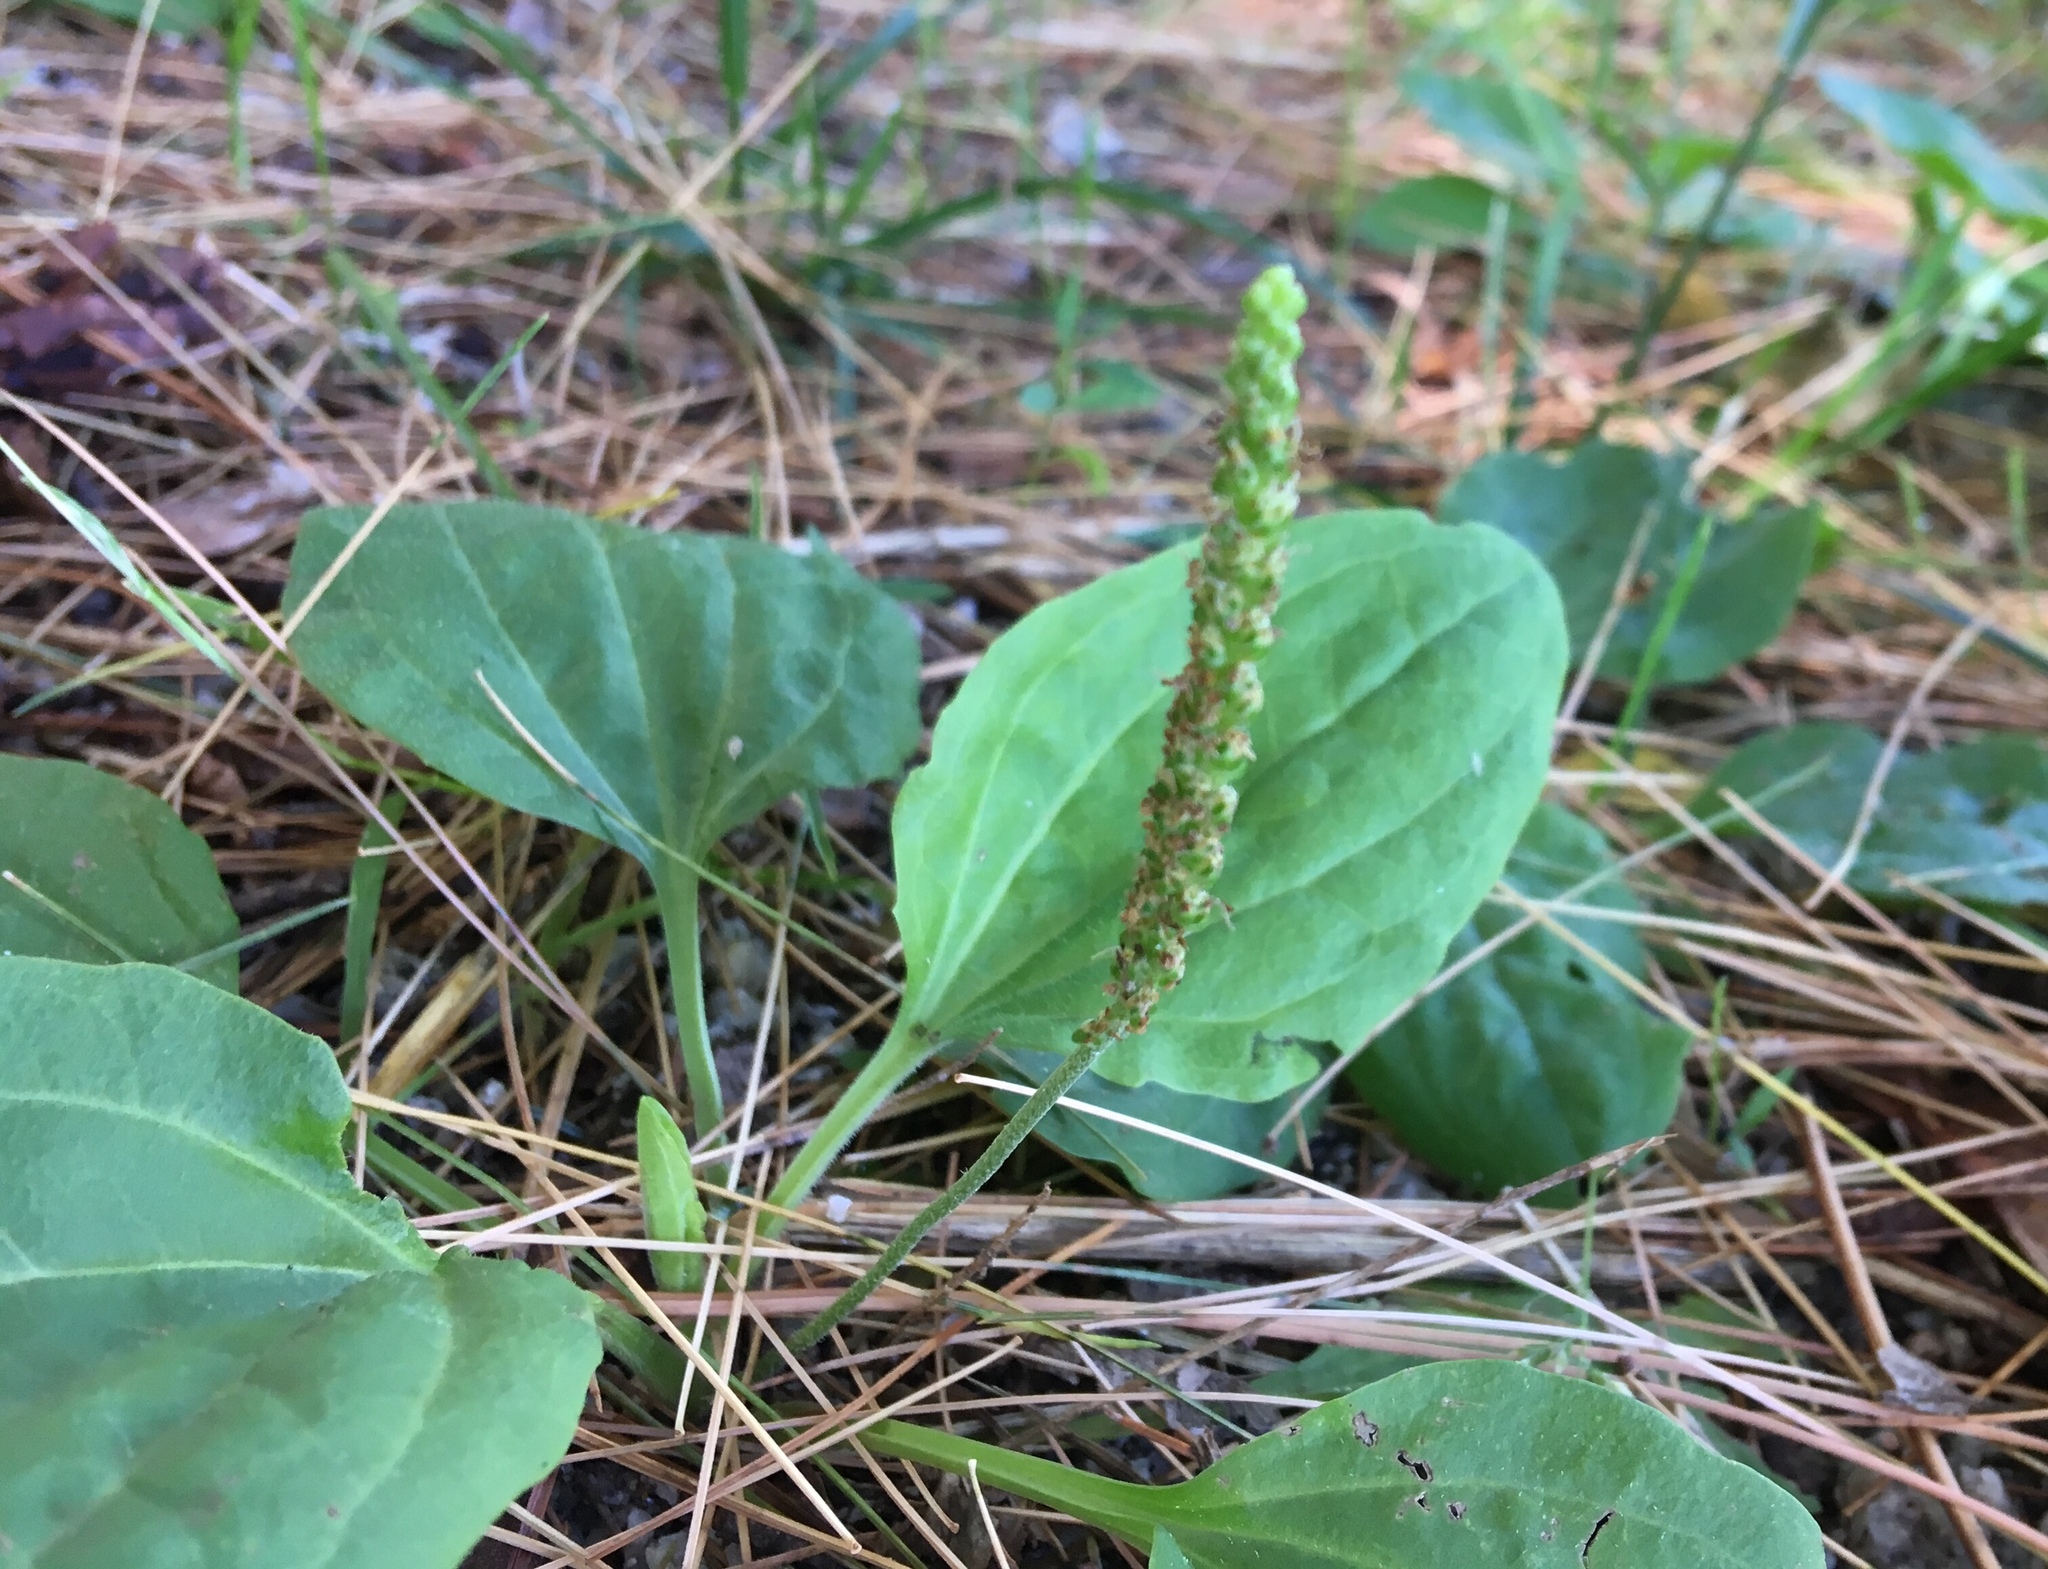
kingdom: Plantae
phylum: Tracheophyta
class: Magnoliopsida
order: Lamiales
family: Plantaginaceae
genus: Plantago
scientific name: Plantago major
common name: Common plantain
